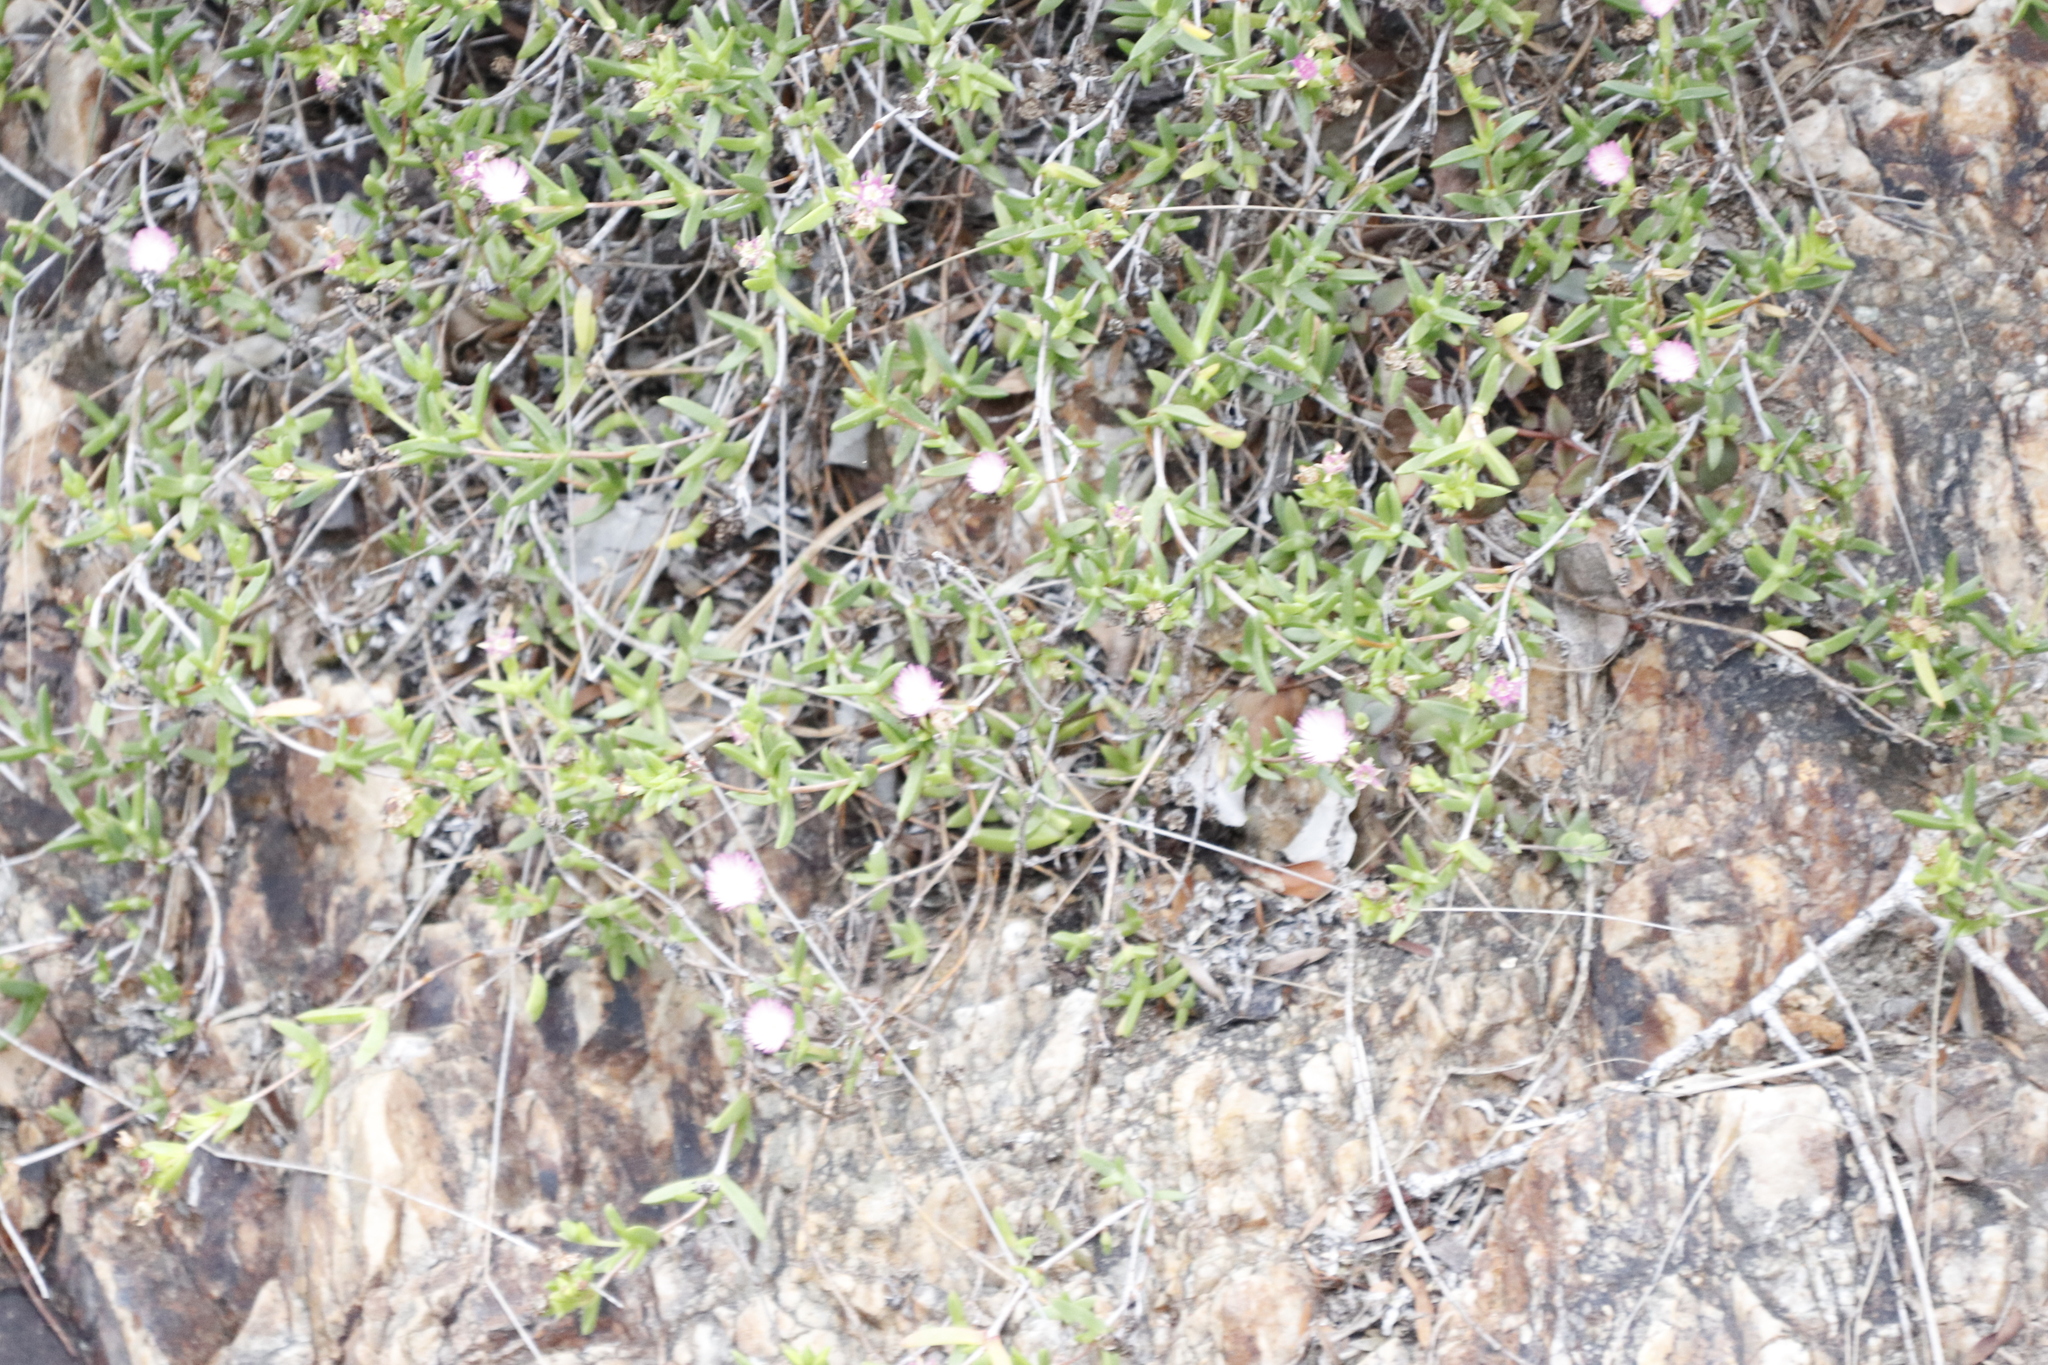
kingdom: Plantae
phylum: Tracheophyta
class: Magnoliopsida
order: Caryophyllales
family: Aizoaceae
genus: Delosperma
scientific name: Delosperma inconspicuum
